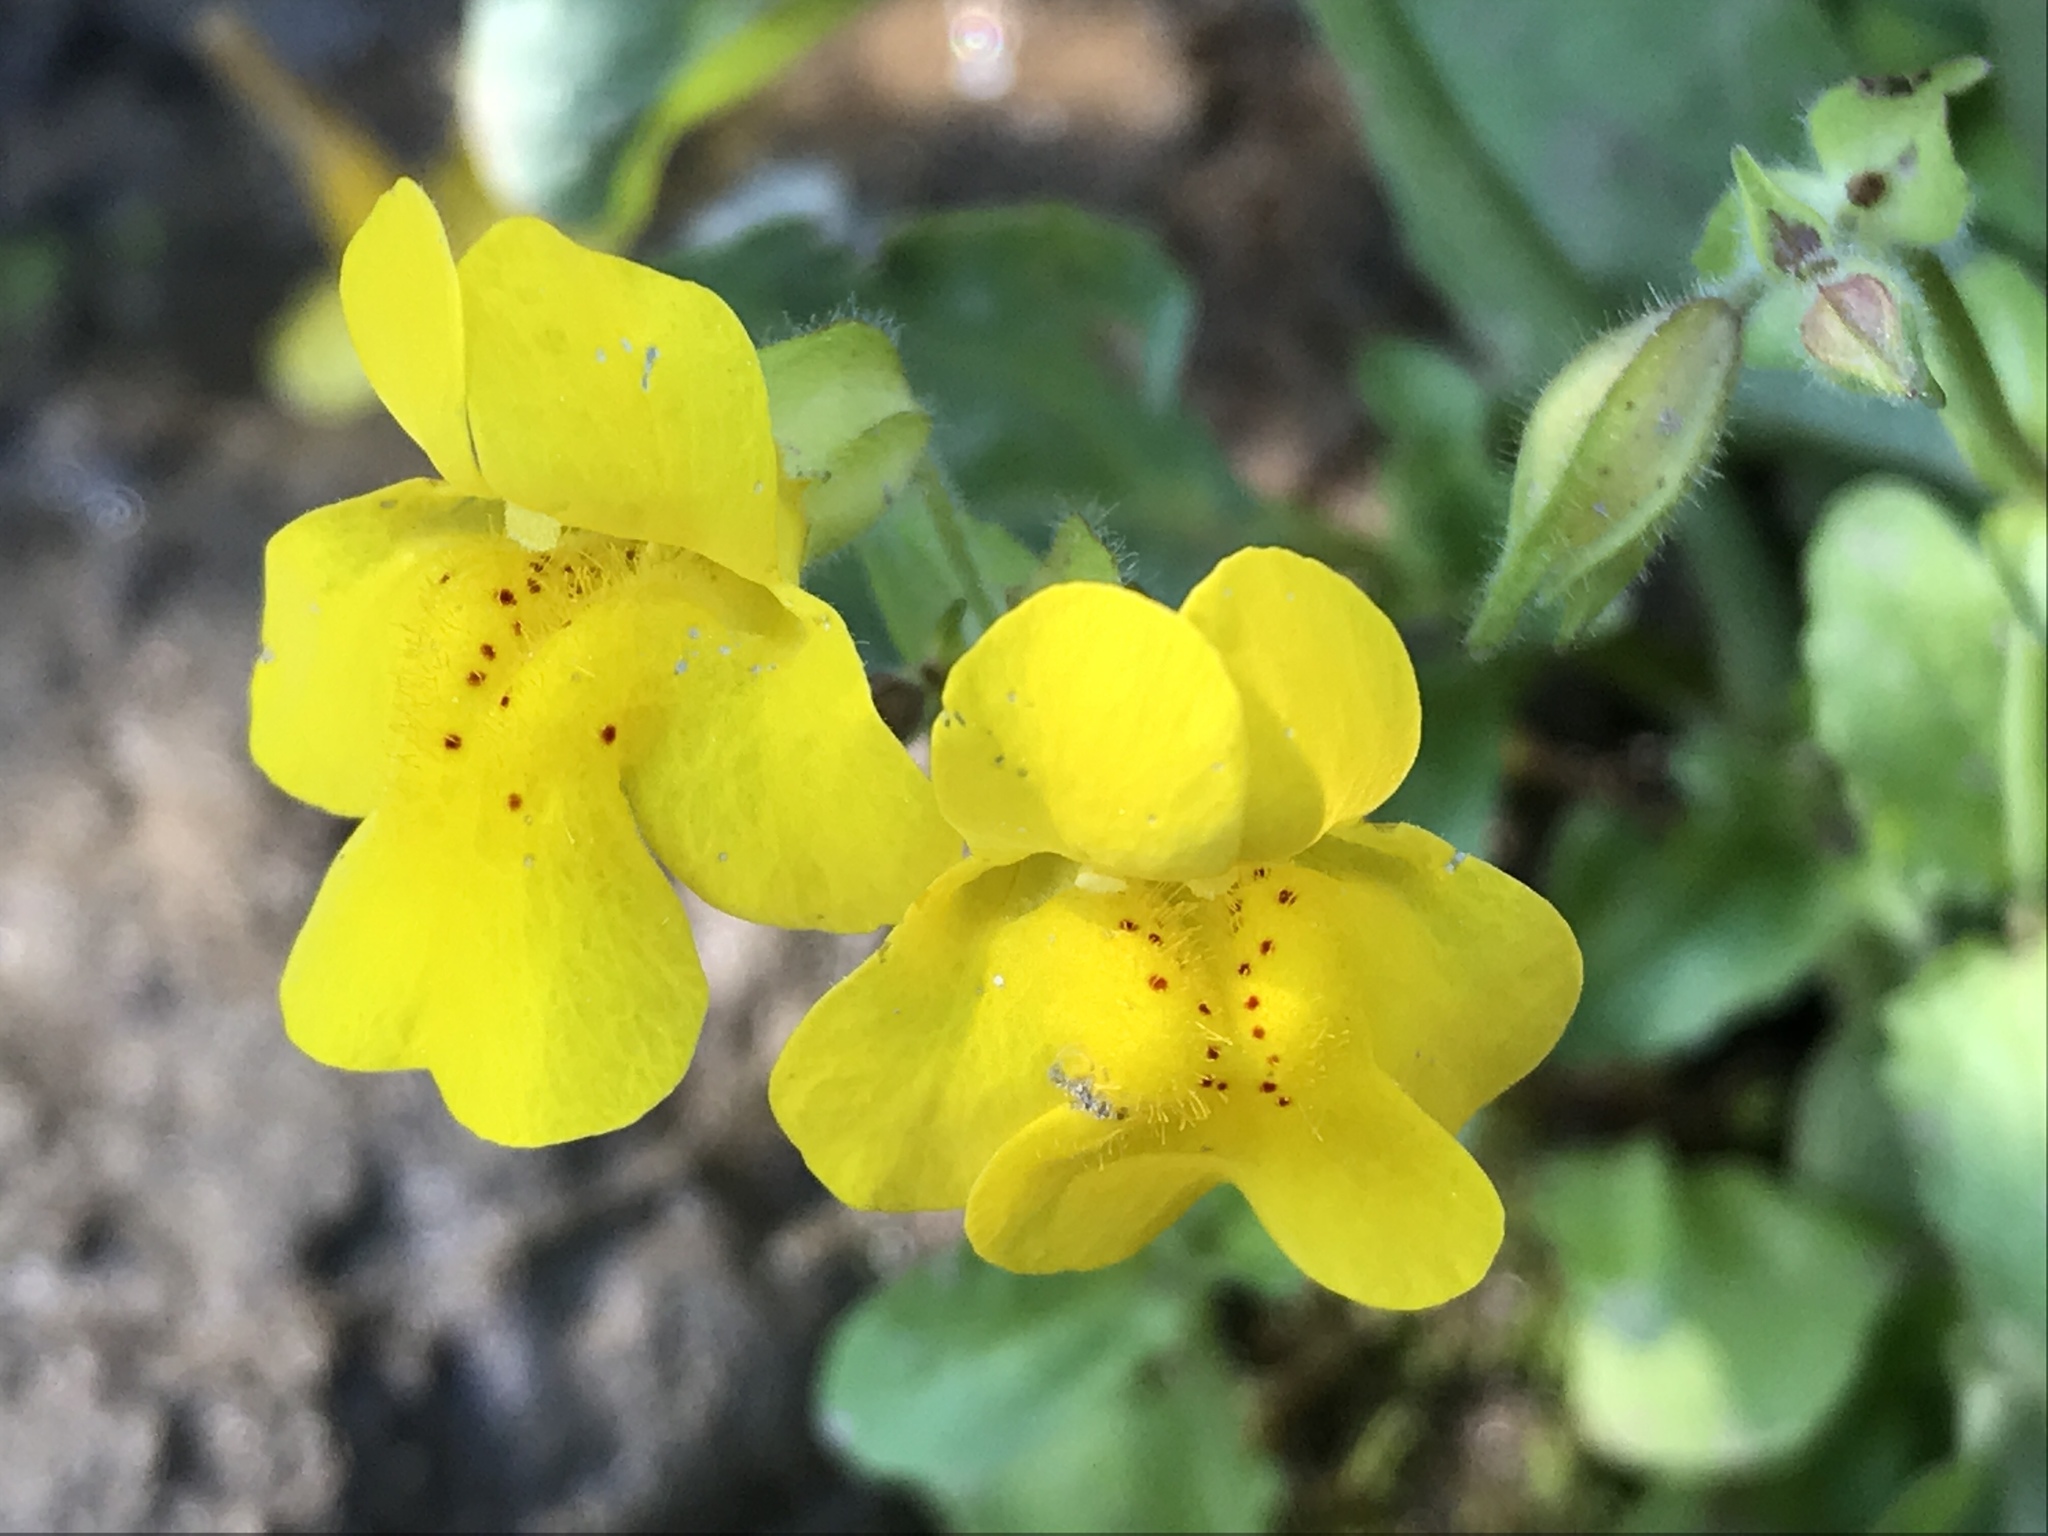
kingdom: Plantae
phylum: Tracheophyta
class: Magnoliopsida
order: Lamiales
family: Phrymaceae
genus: Erythranthe
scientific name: Erythranthe guttata
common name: Monkeyflower
